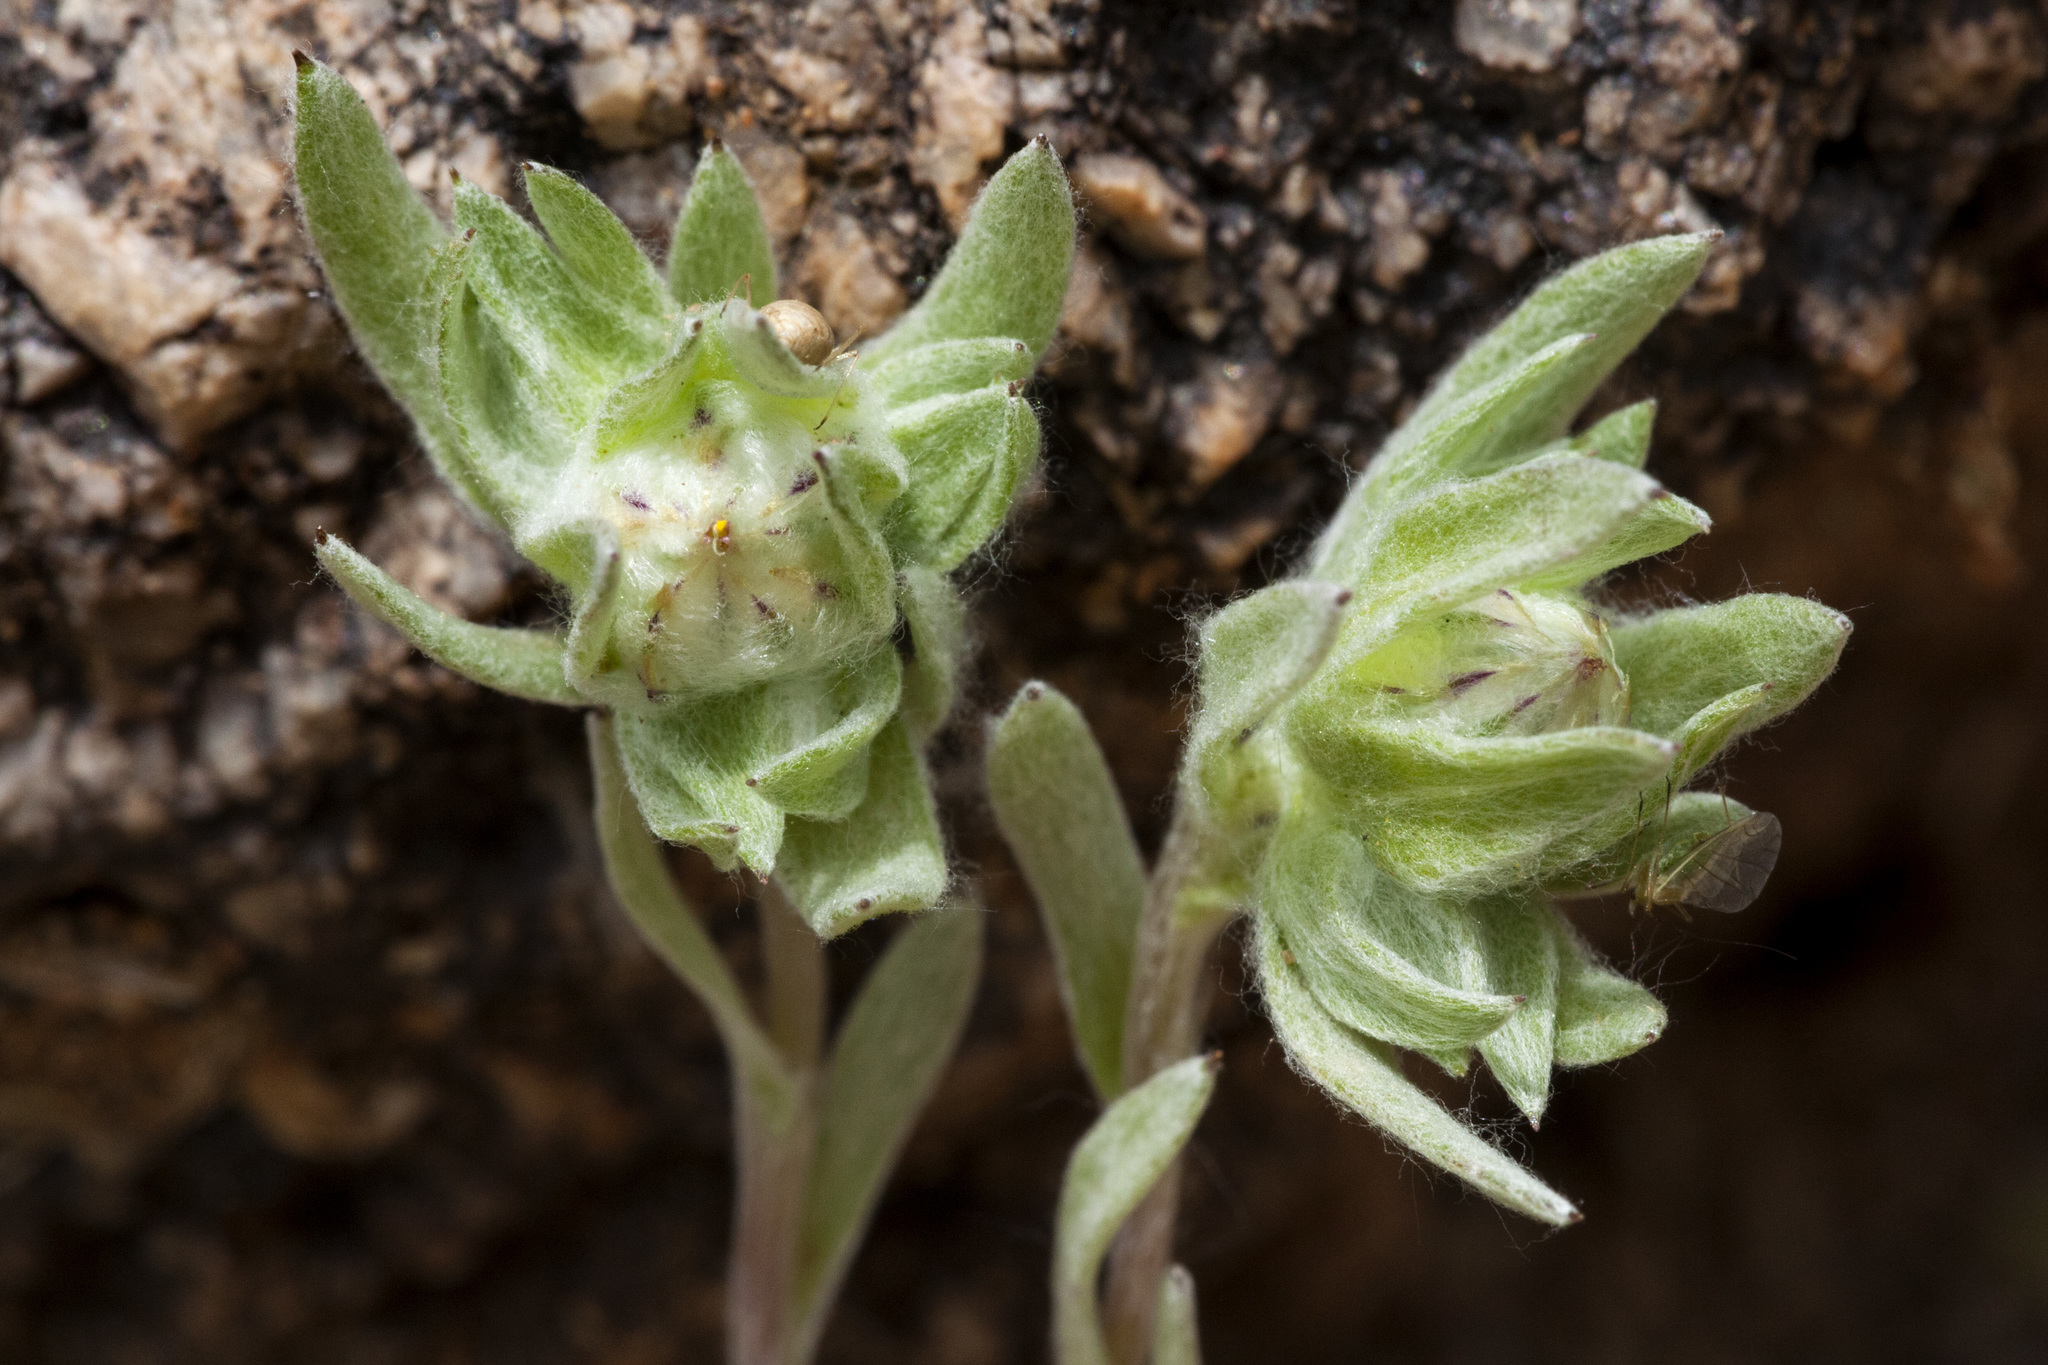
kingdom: Plantae
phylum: Tracheophyta
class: Magnoliopsida
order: Asterales
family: Asteraceae
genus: Stylocline
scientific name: Stylocline micropoides
